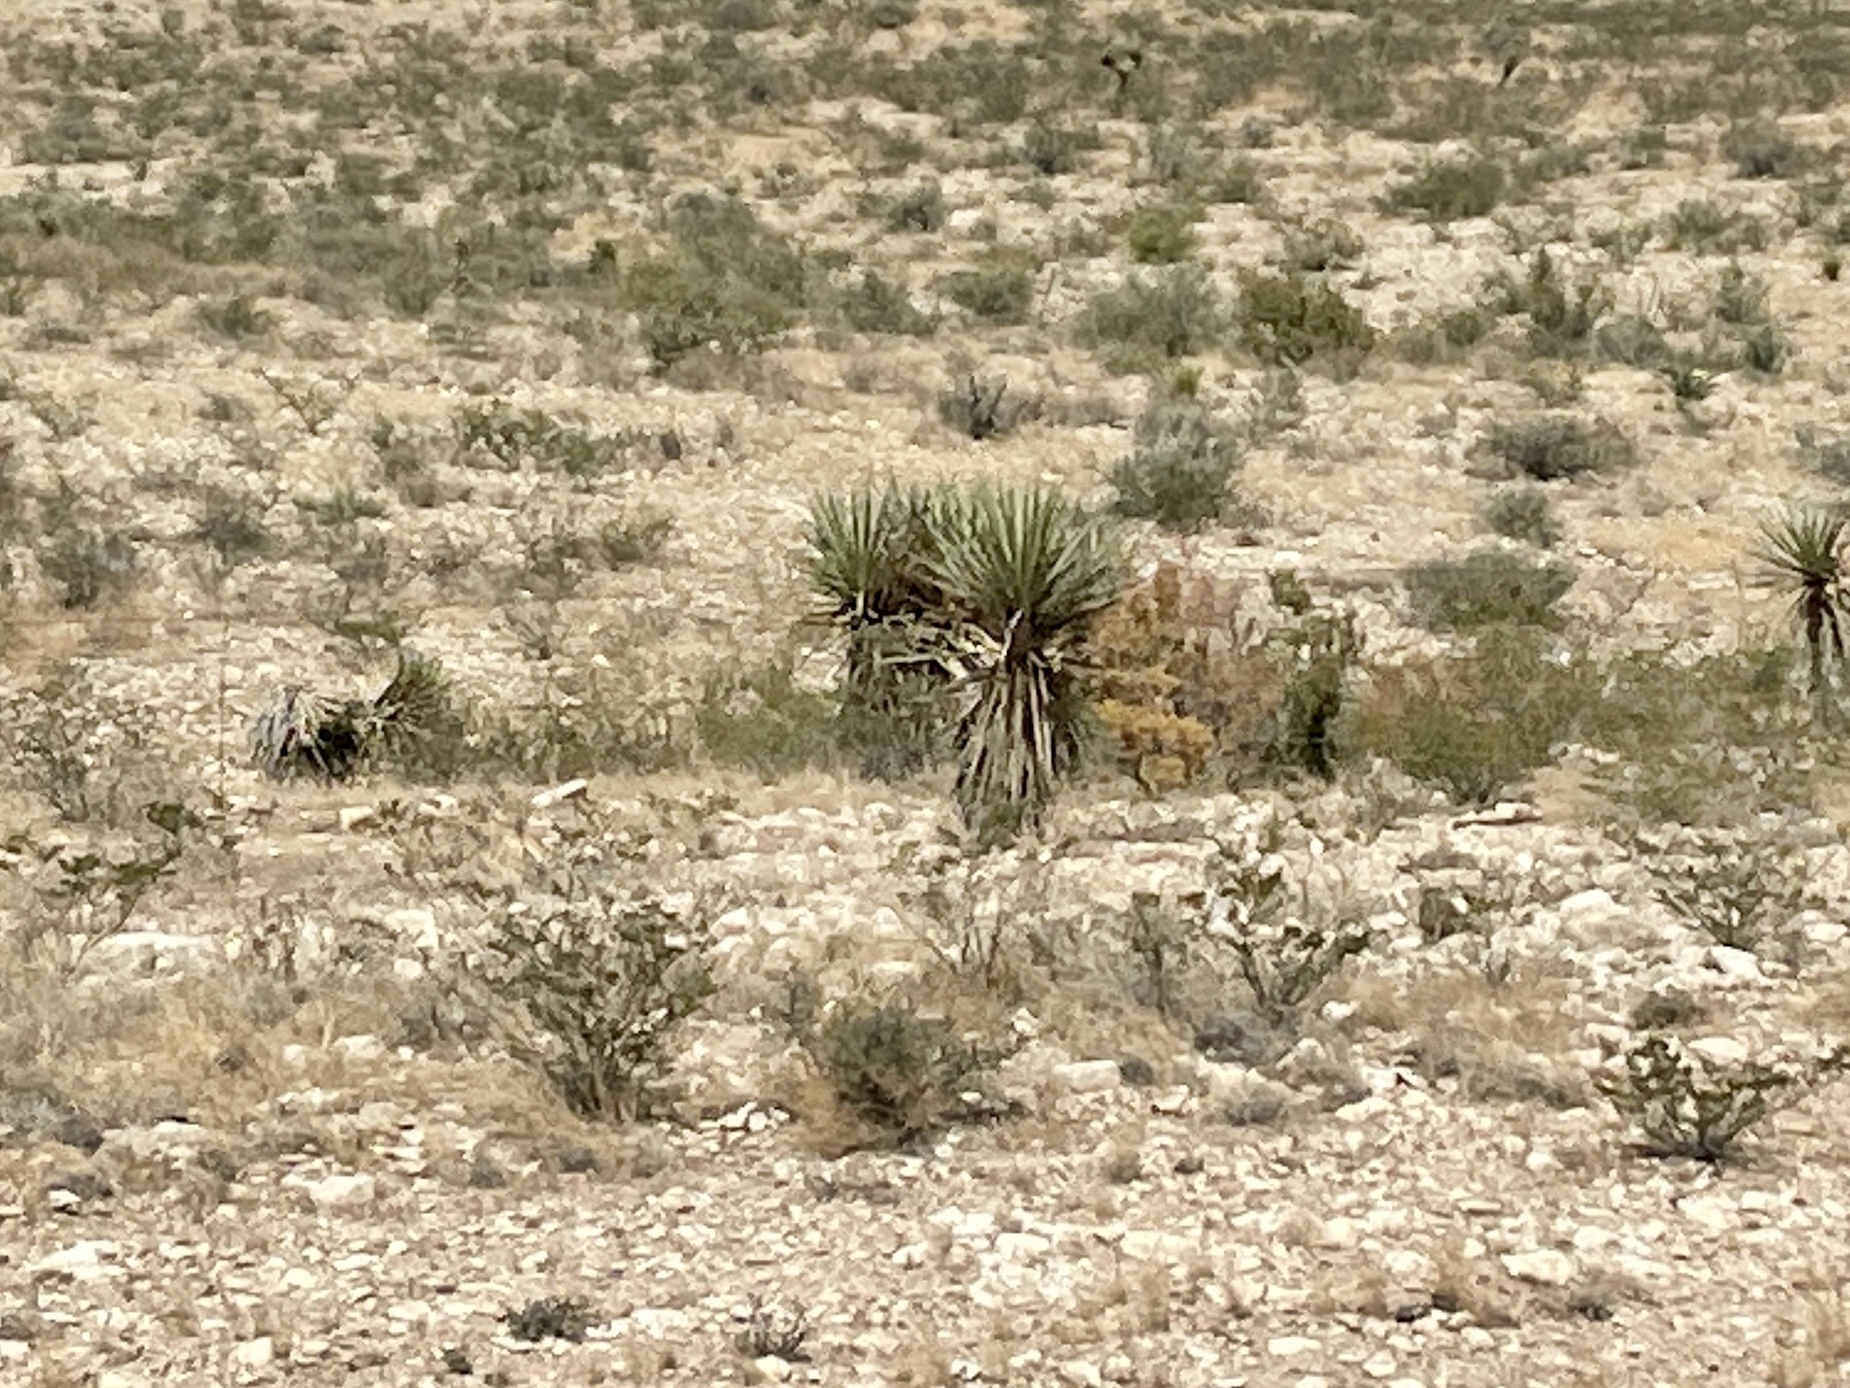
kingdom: Plantae
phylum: Tracheophyta
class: Liliopsida
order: Asparagales
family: Asparagaceae
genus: Yucca
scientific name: Yucca treculiana
